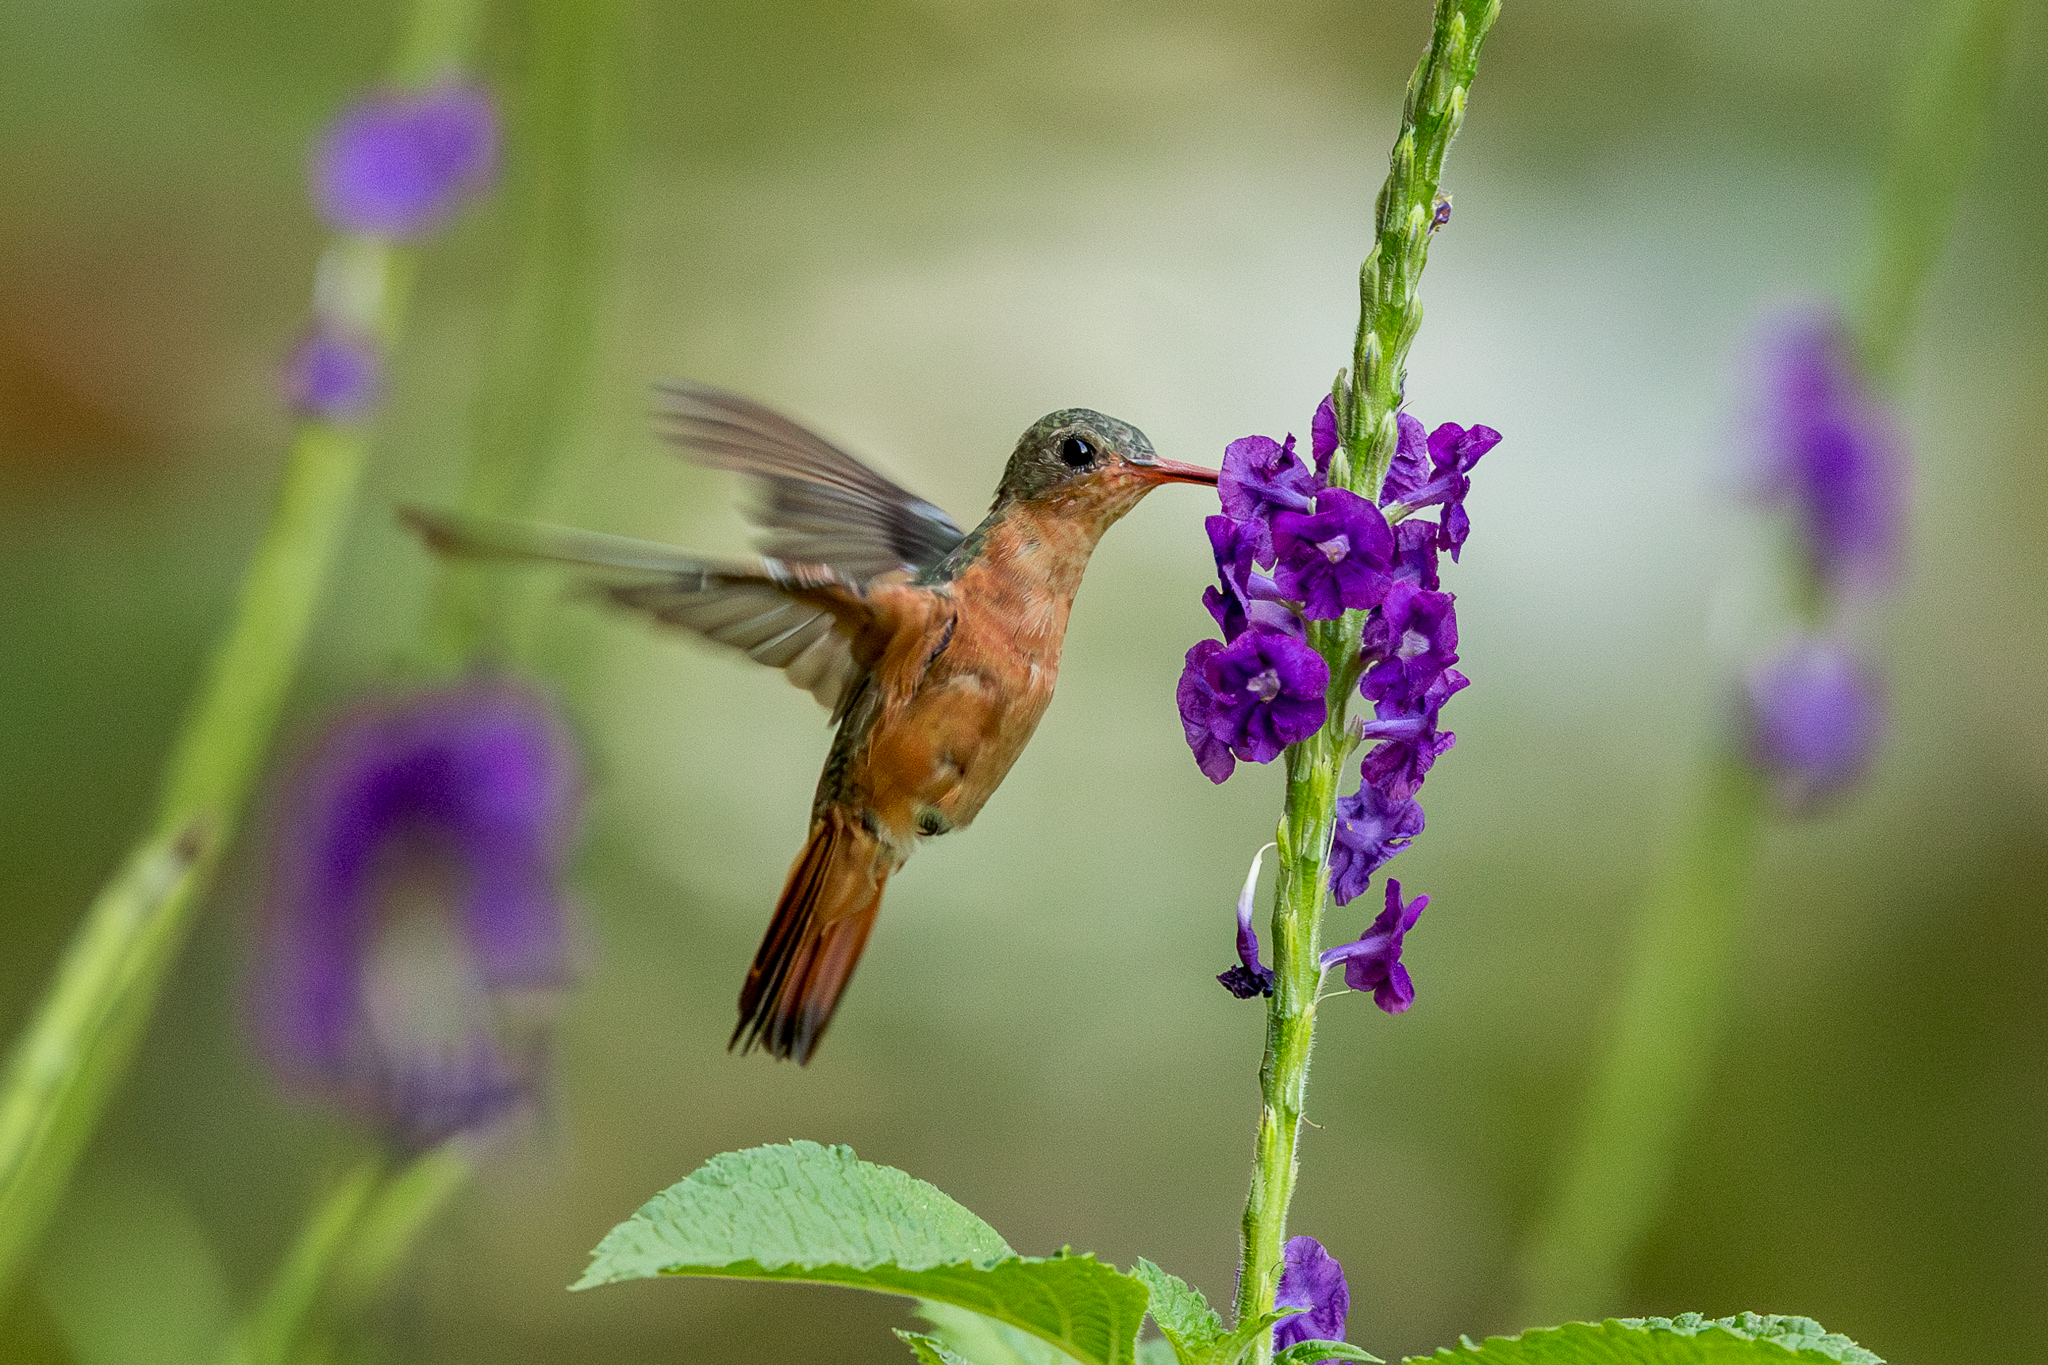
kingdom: Animalia
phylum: Chordata
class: Aves
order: Apodiformes
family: Trochilidae
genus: Amazilia
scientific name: Amazilia rutila
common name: Cinnamon hummingbird
